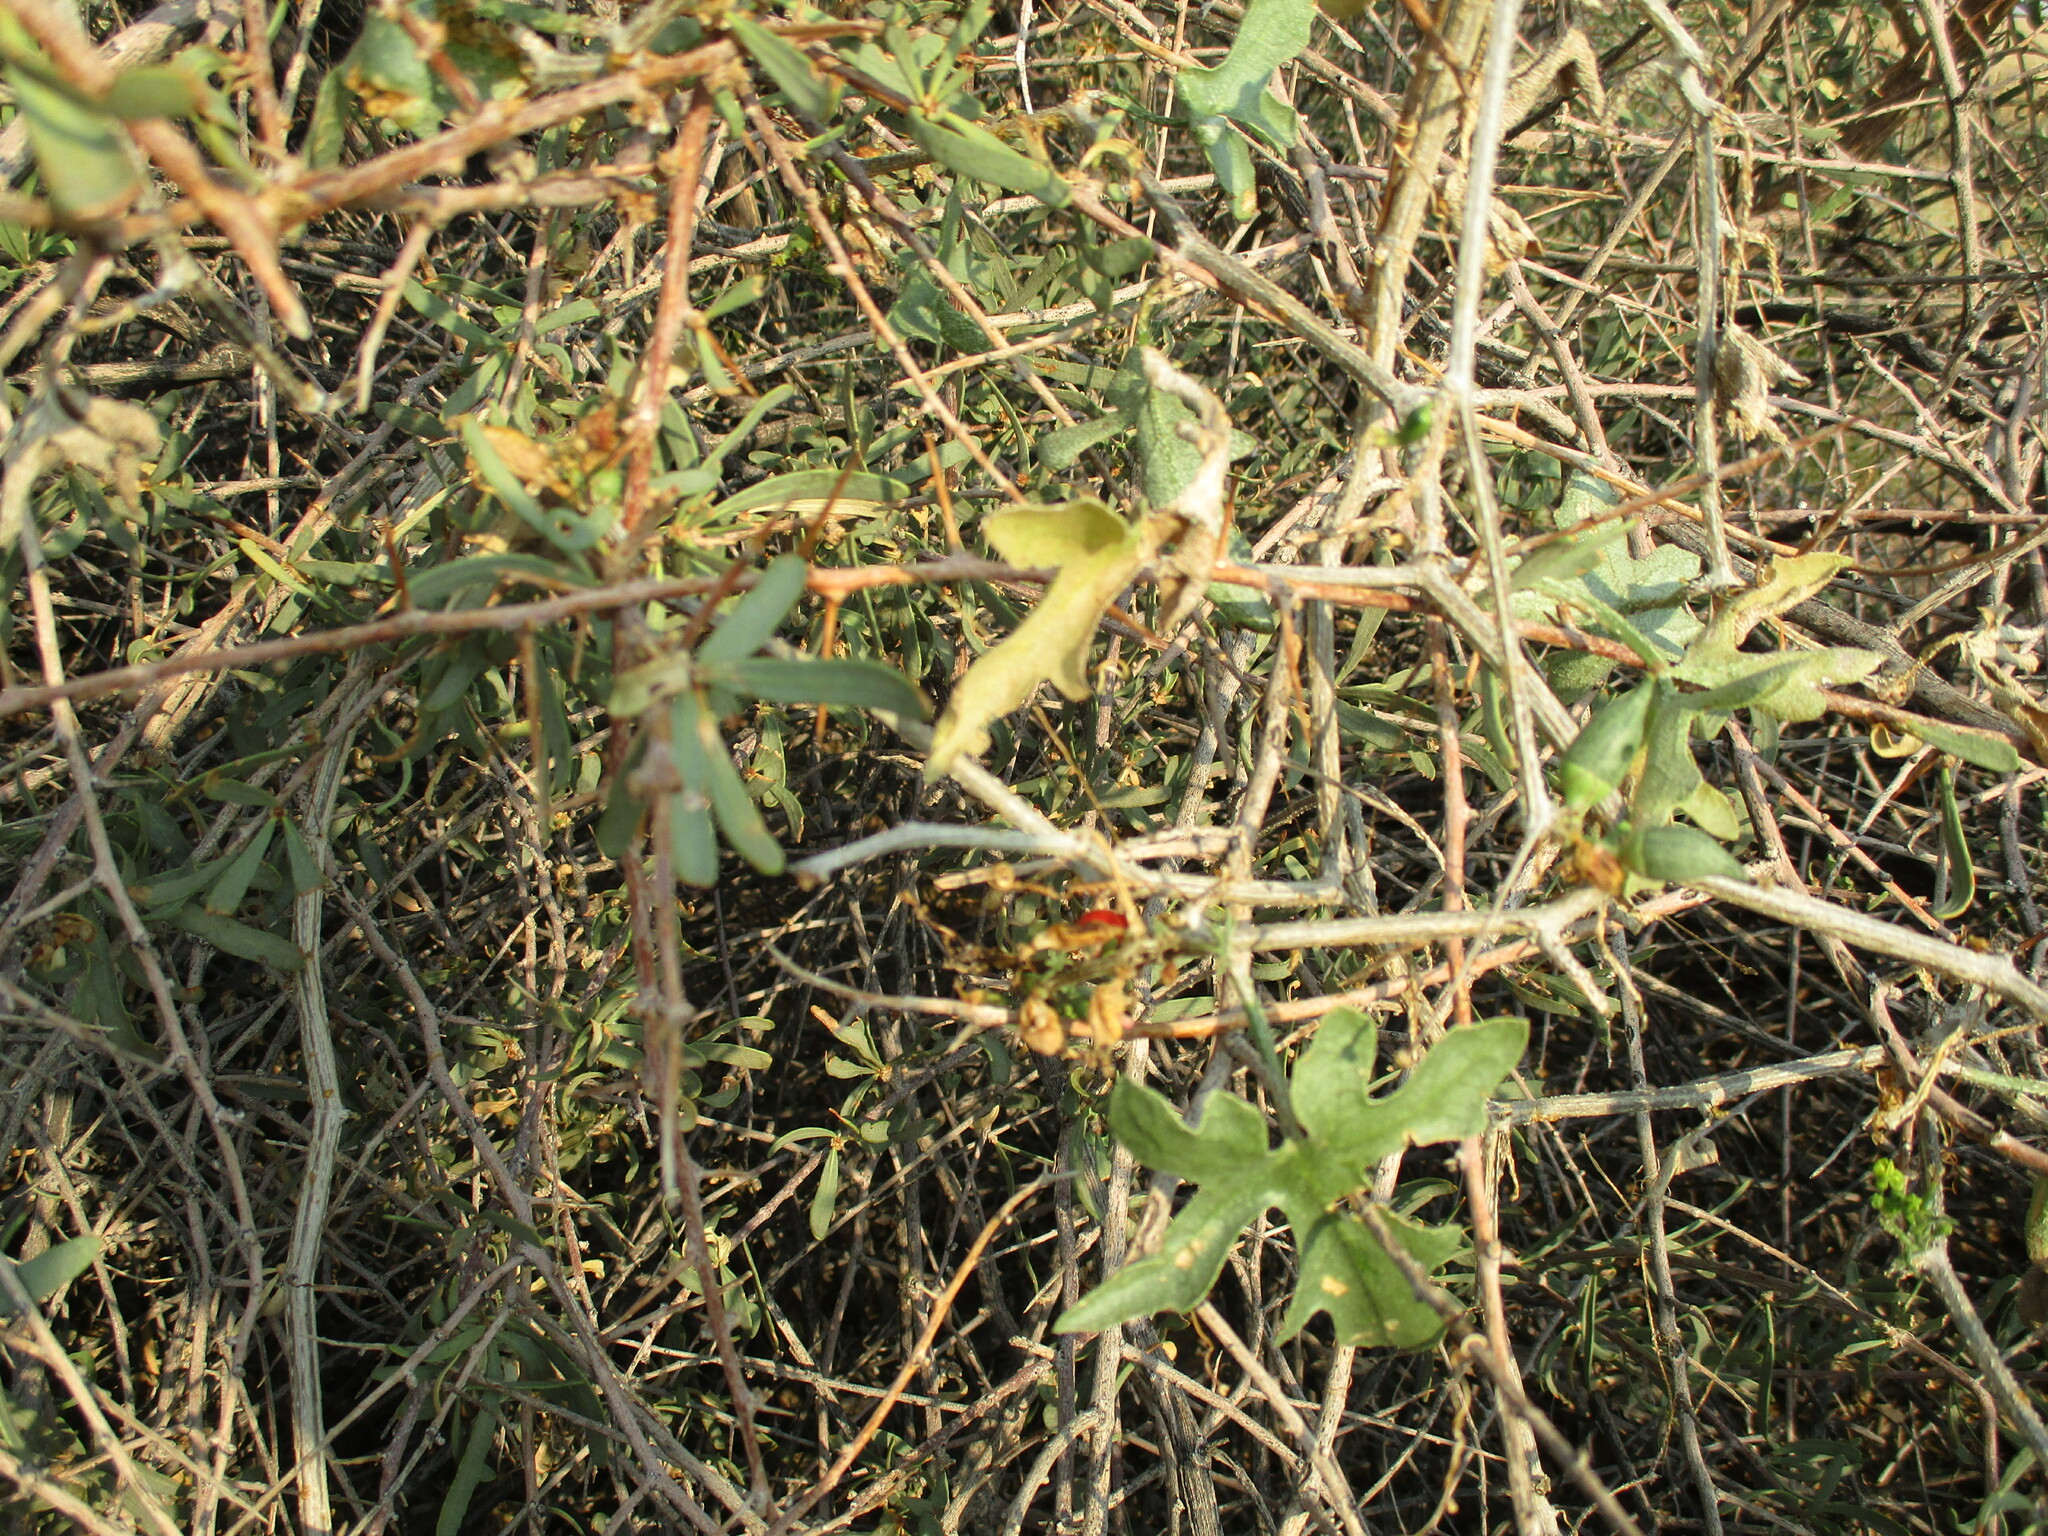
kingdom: Plantae
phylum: Tracheophyta
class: Magnoliopsida
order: Cucurbitales
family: Cucurbitaceae
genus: Corallocarpus
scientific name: Corallocarpus welwitschii
